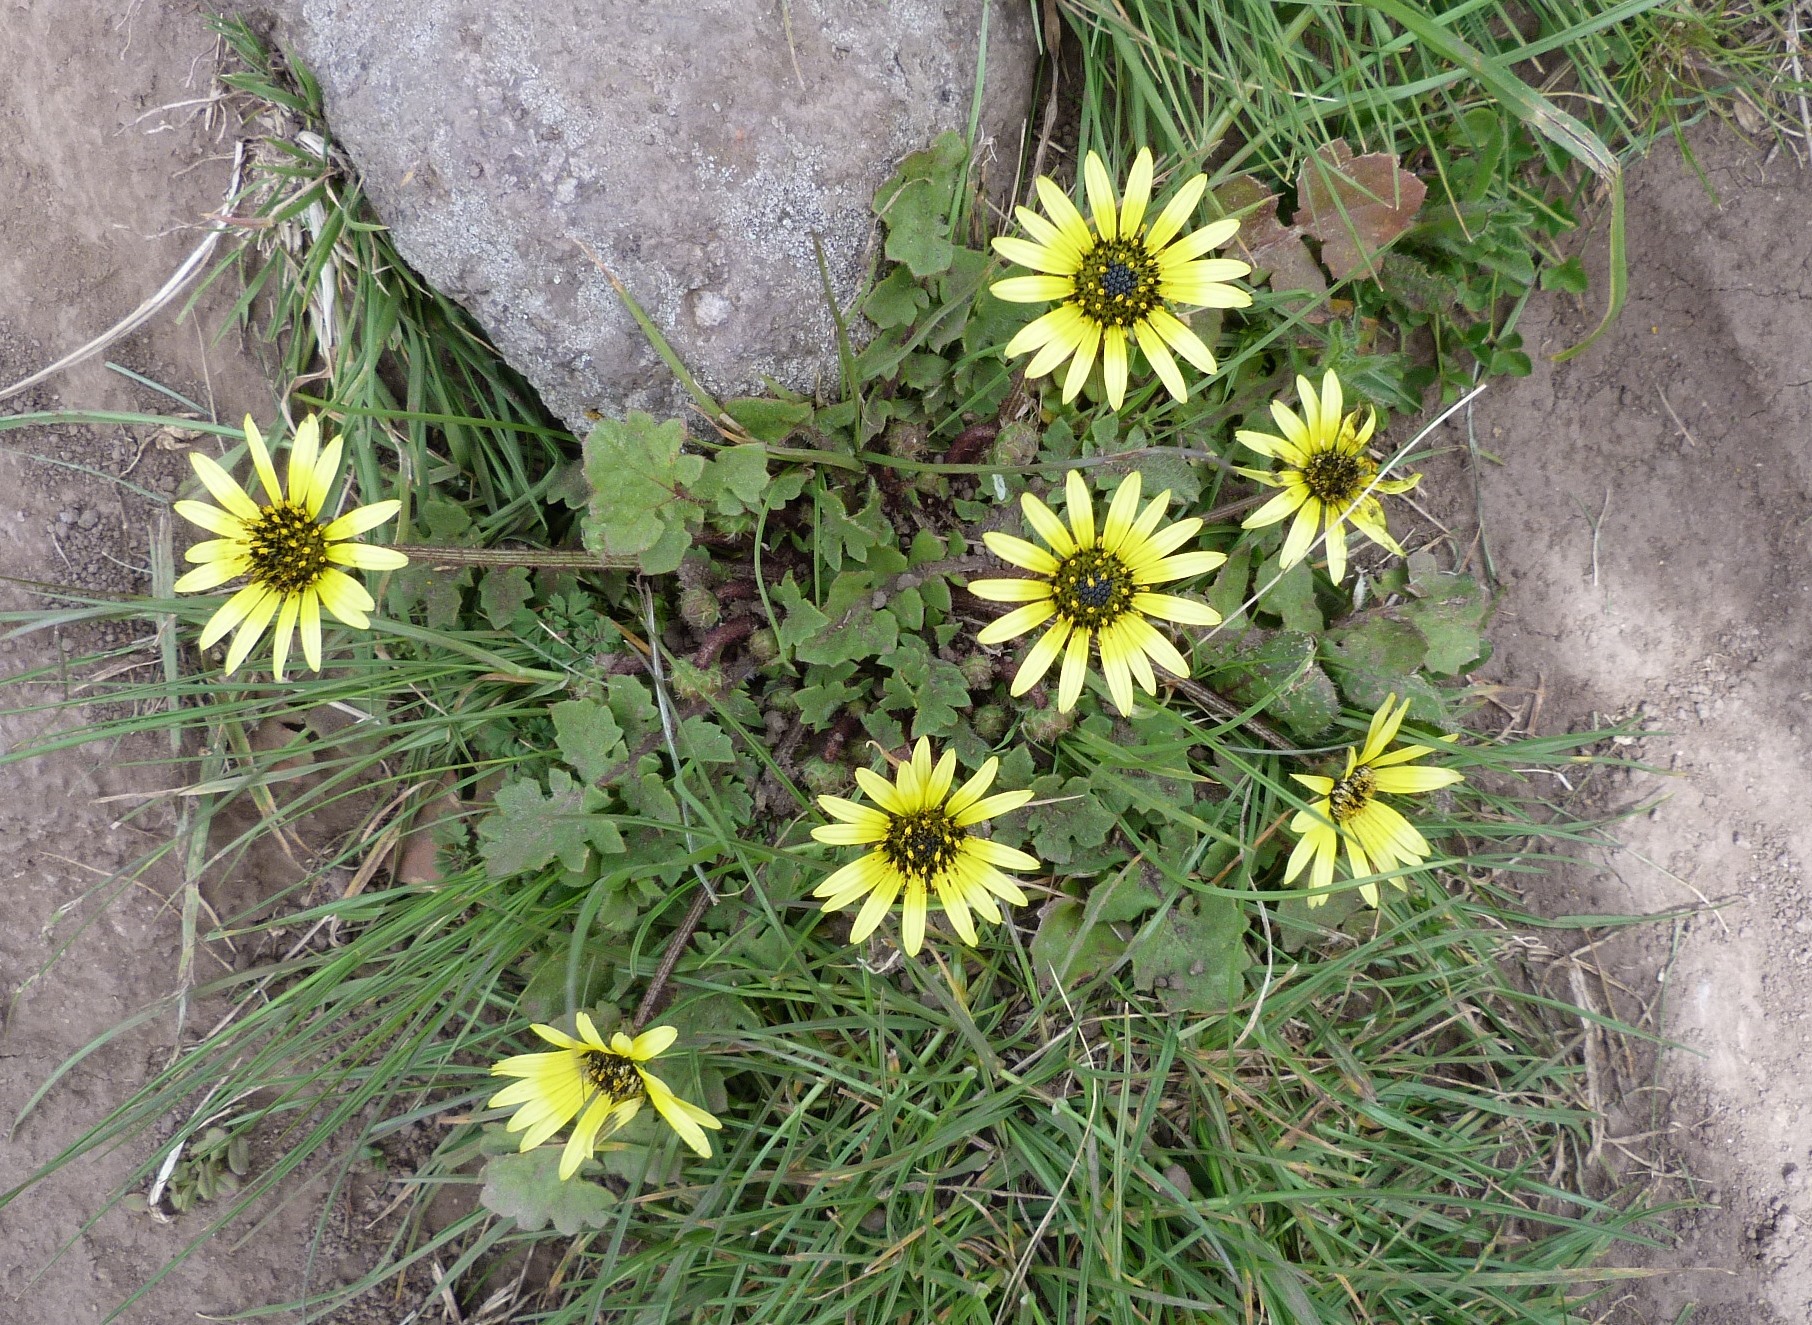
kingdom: Plantae
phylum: Tracheophyta
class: Magnoliopsida
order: Asterales
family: Asteraceae
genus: Arctotheca
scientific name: Arctotheca calendula
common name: Capeweed
